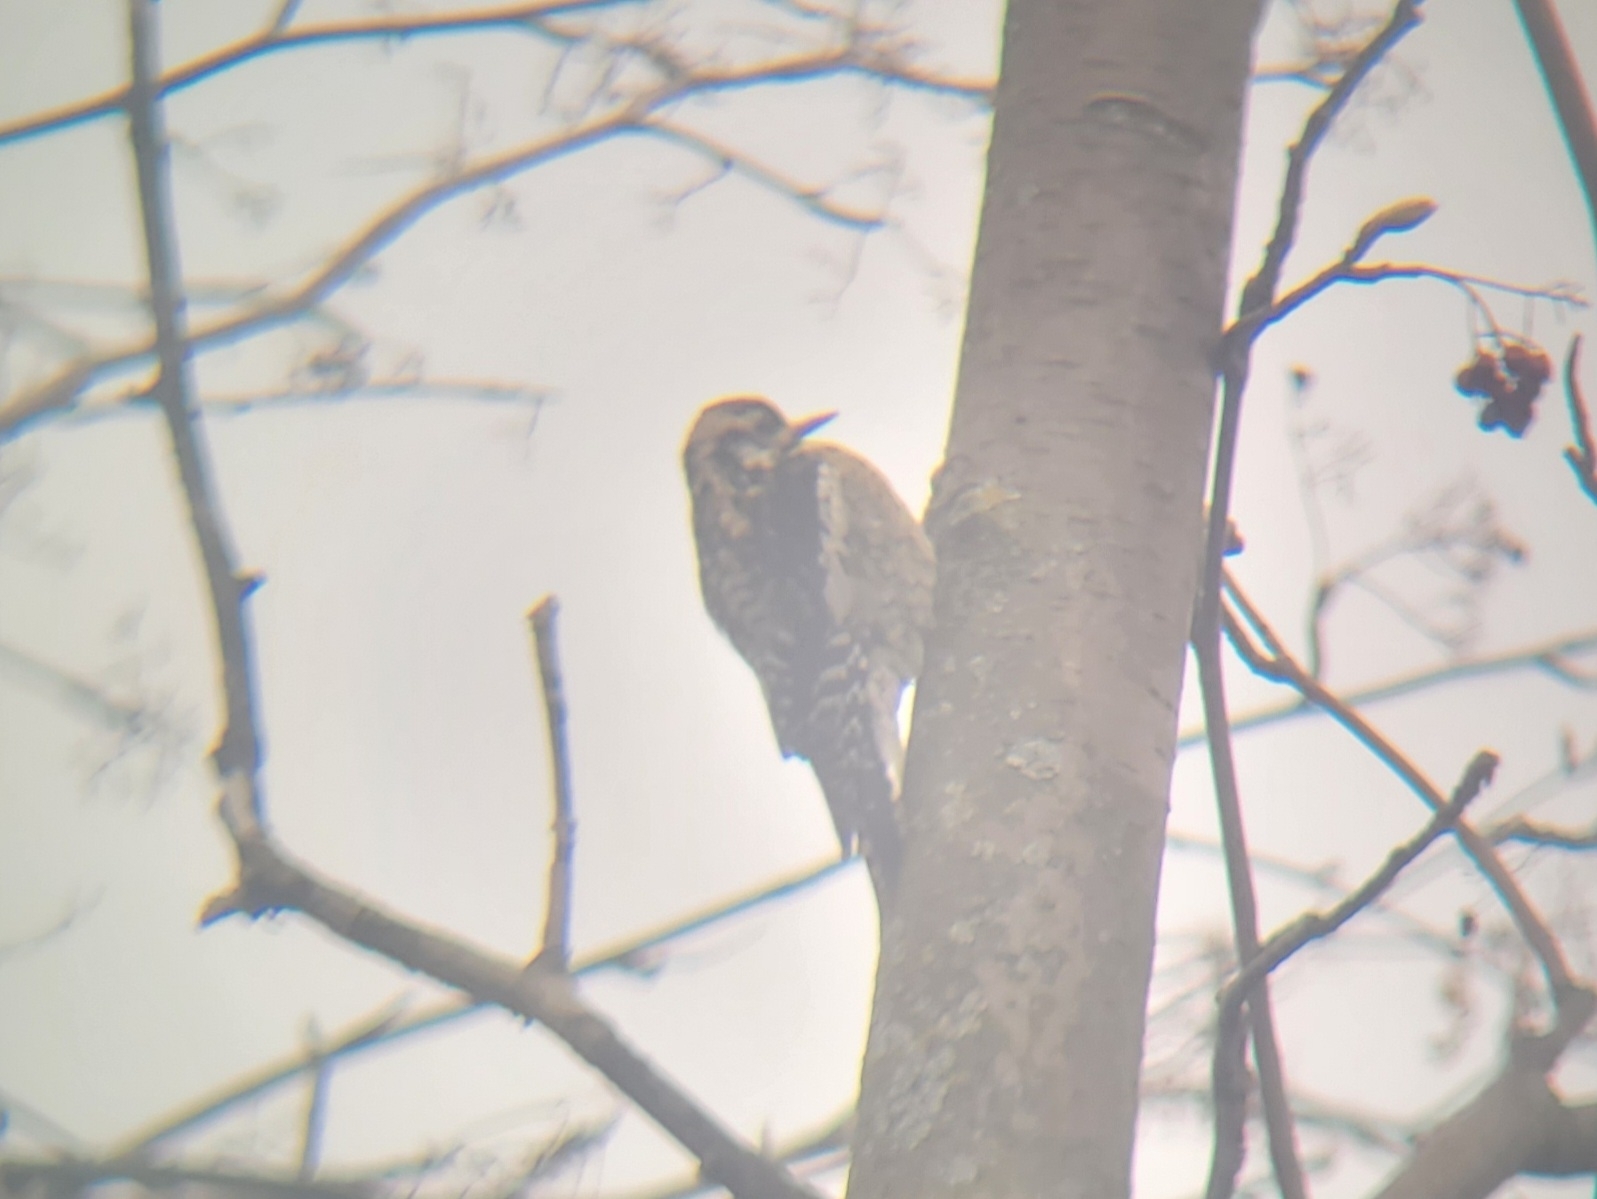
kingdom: Animalia
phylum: Chordata
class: Aves
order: Piciformes
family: Picidae
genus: Sphyrapicus
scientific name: Sphyrapicus varius
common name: Yellow-bellied sapsucker
